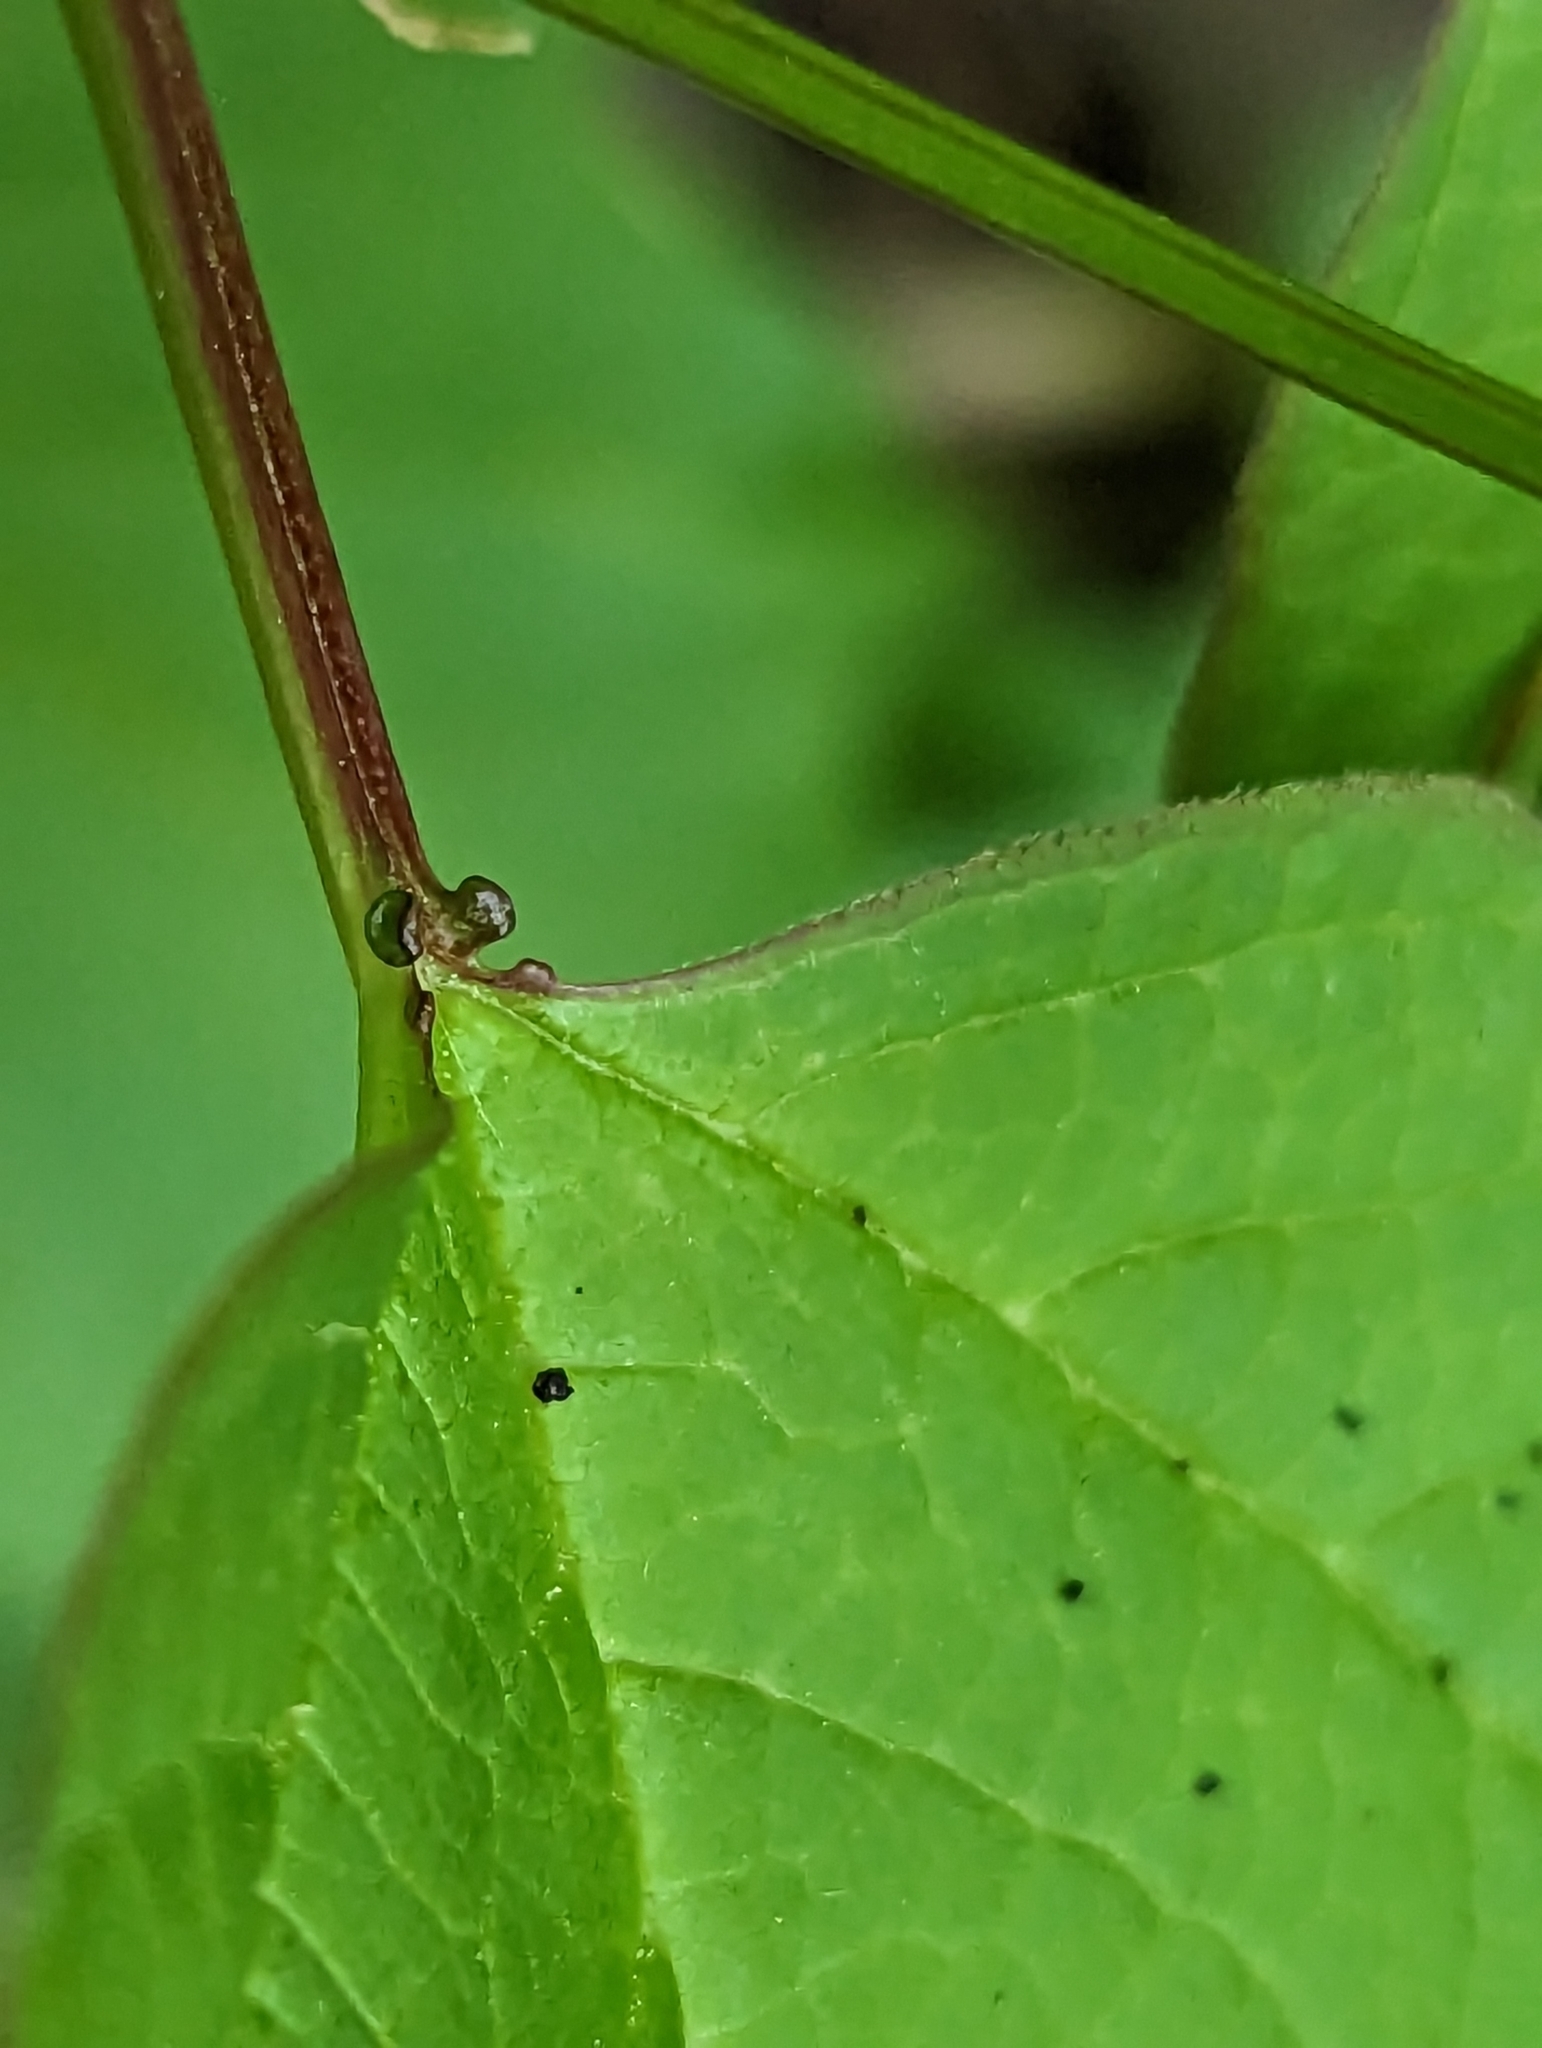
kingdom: Plantae
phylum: Tracheophyta
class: Magnoliopsida
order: Dipsacales
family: Viburnaceae
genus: Viburnum
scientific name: Viburnum opulus
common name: Guelder-rose
